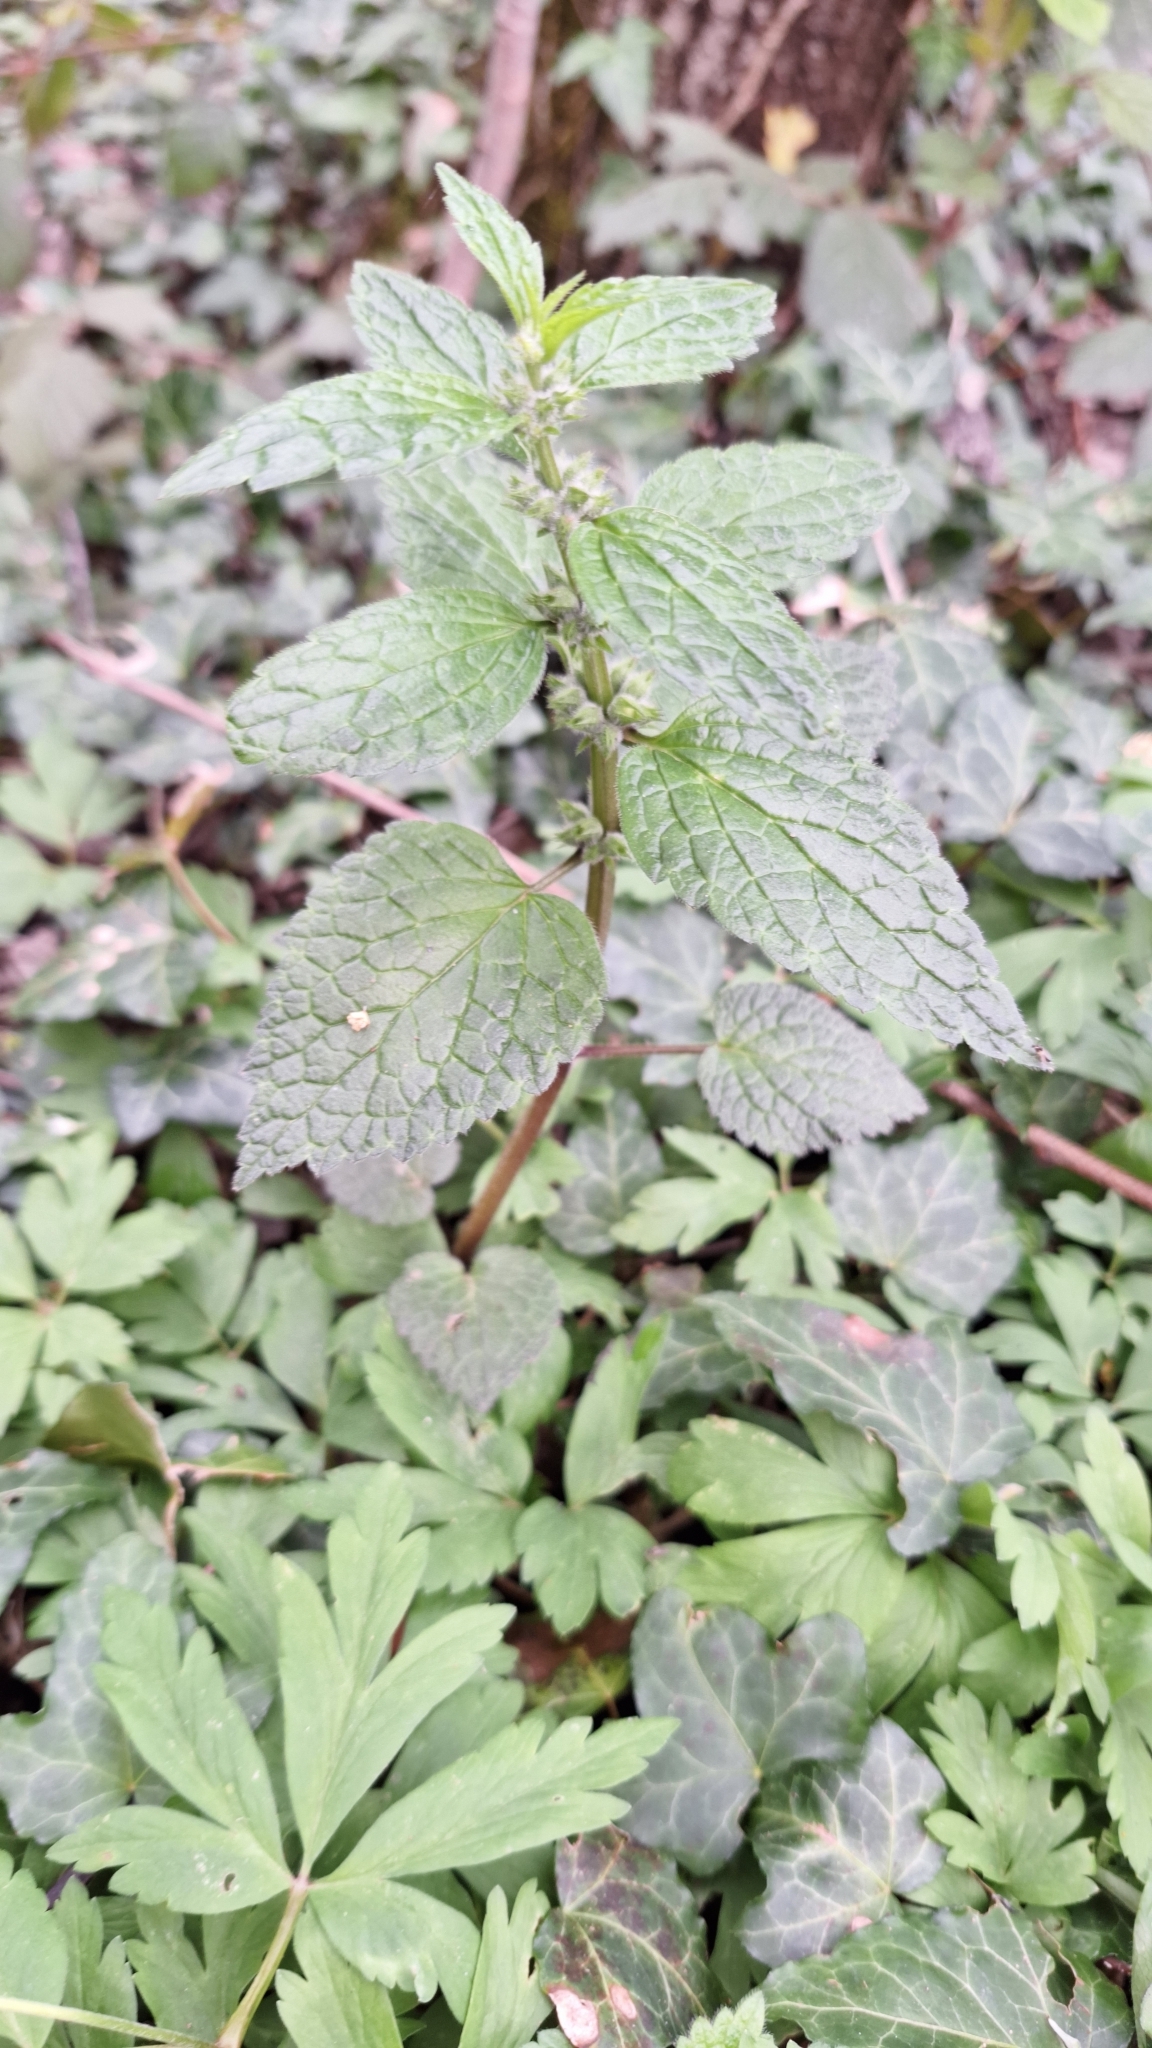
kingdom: Plantae
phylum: Tracheophyta
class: Magnoliopsida
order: Lamiales
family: Lamiaceae
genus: Lamium
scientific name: Lamium galeobdolon
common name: Yellow archangel
